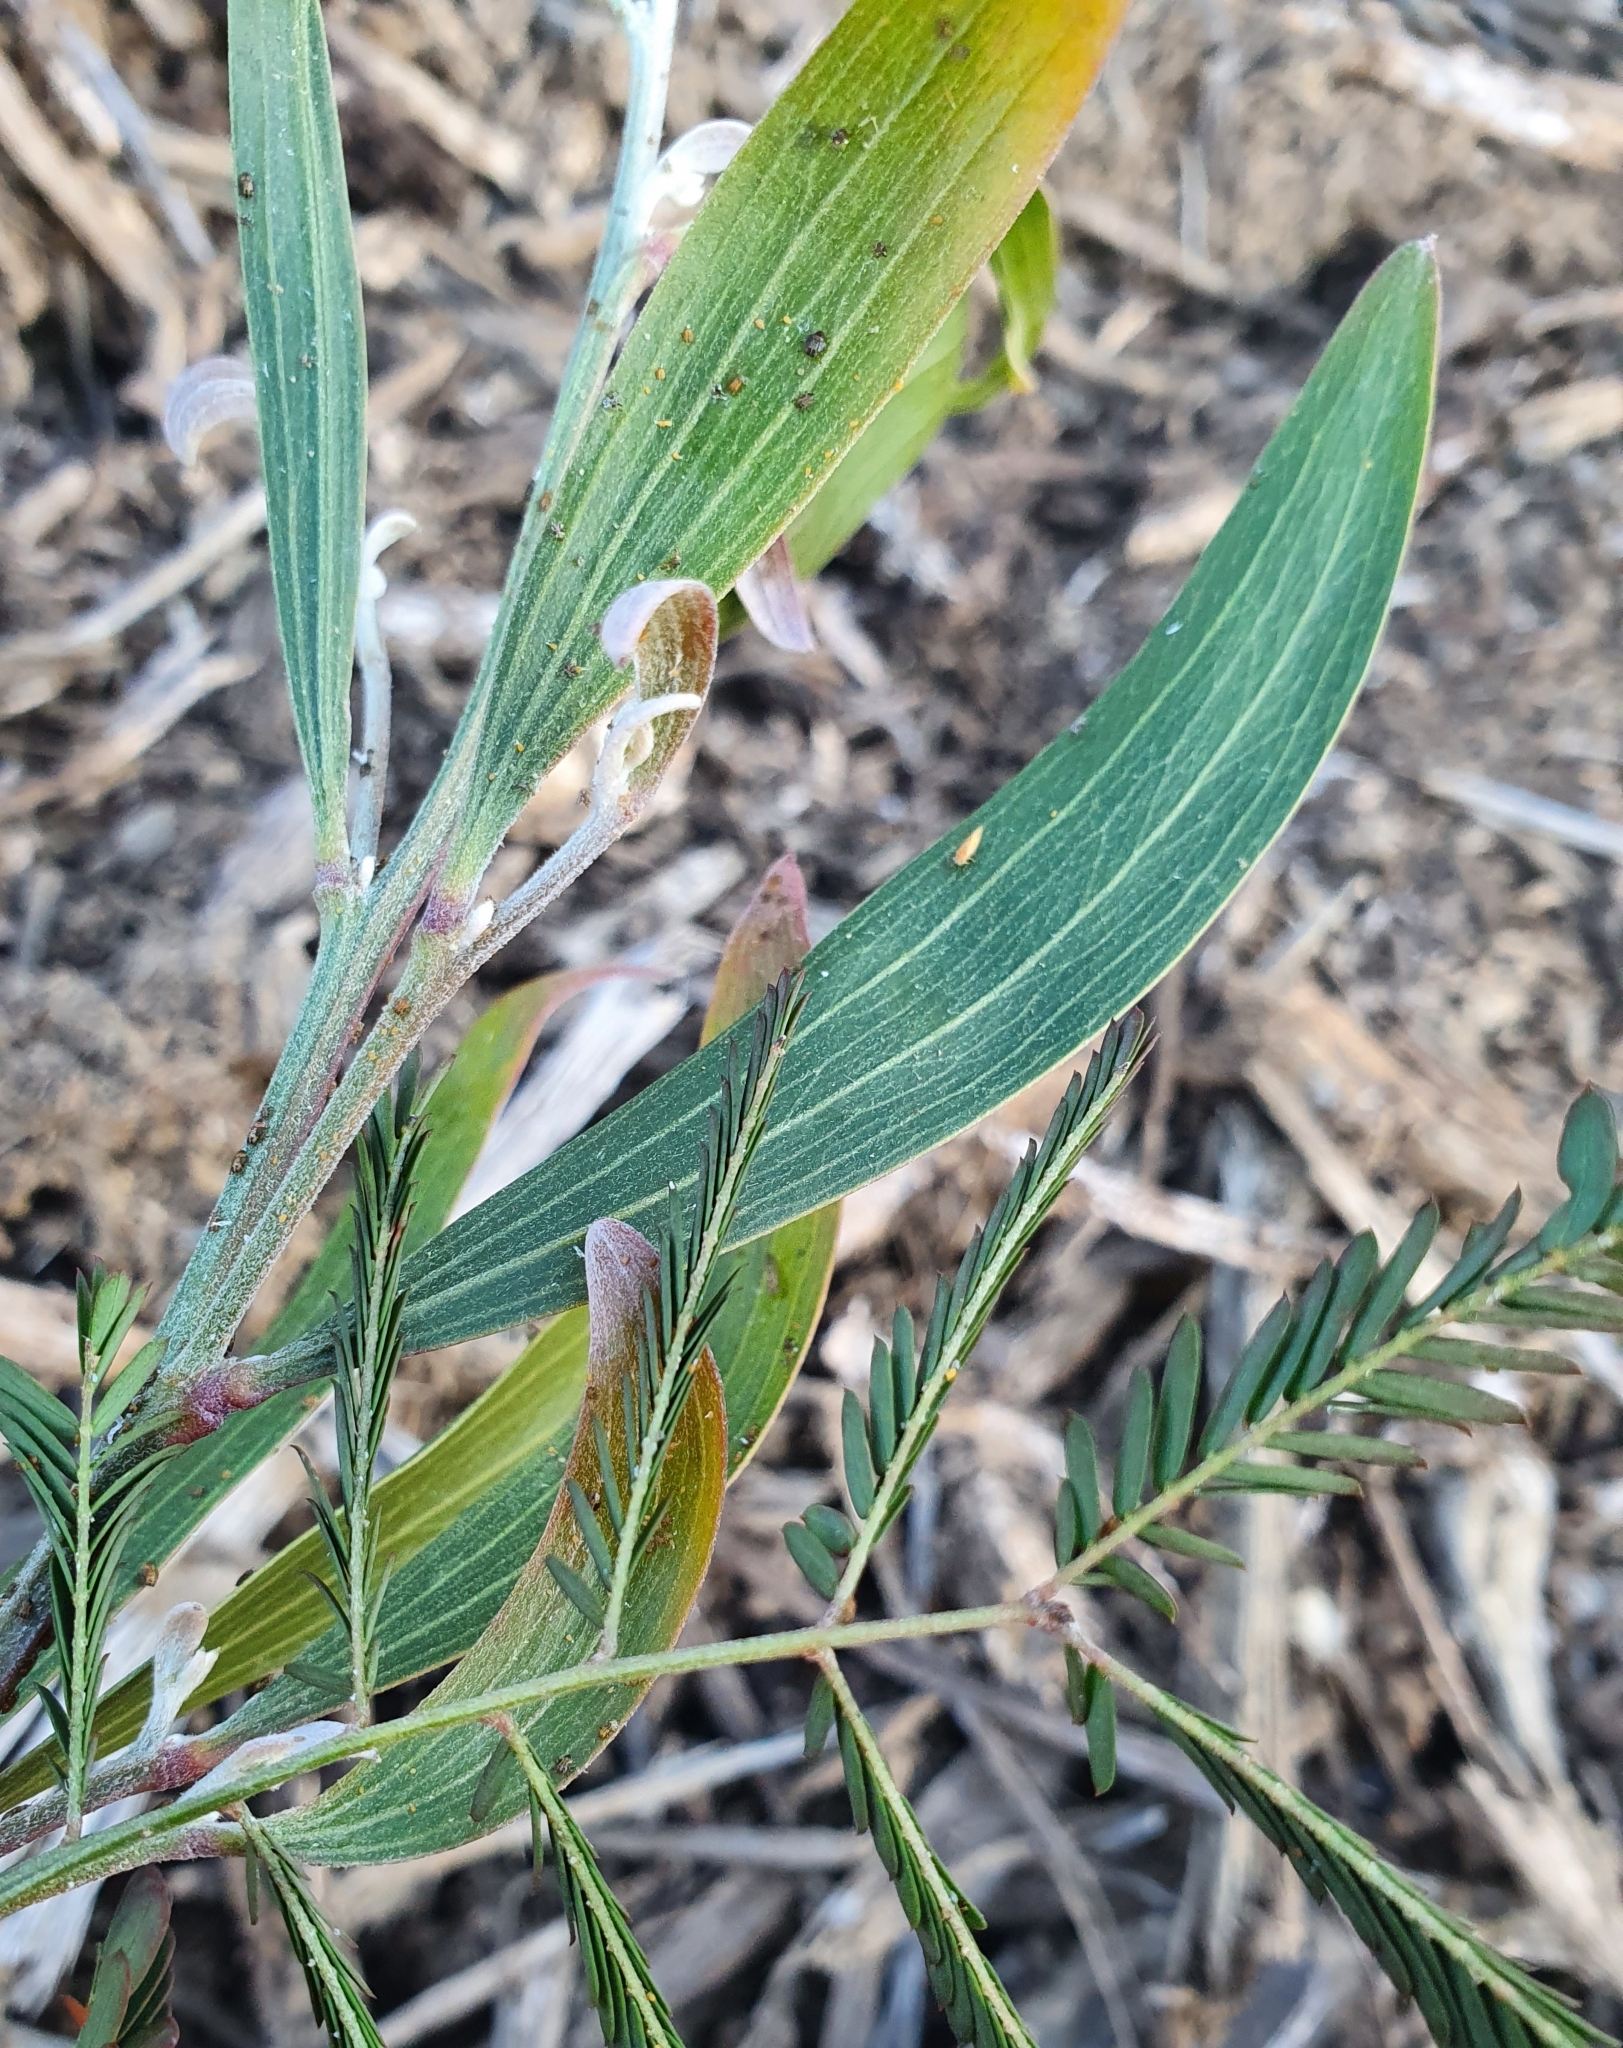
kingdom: Plantae
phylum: Tracheophyta
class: Magnoliopsida
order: Fabales
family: Fabaceae
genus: Acacia
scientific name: Acacia longifolia
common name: Sydney golden wattle
